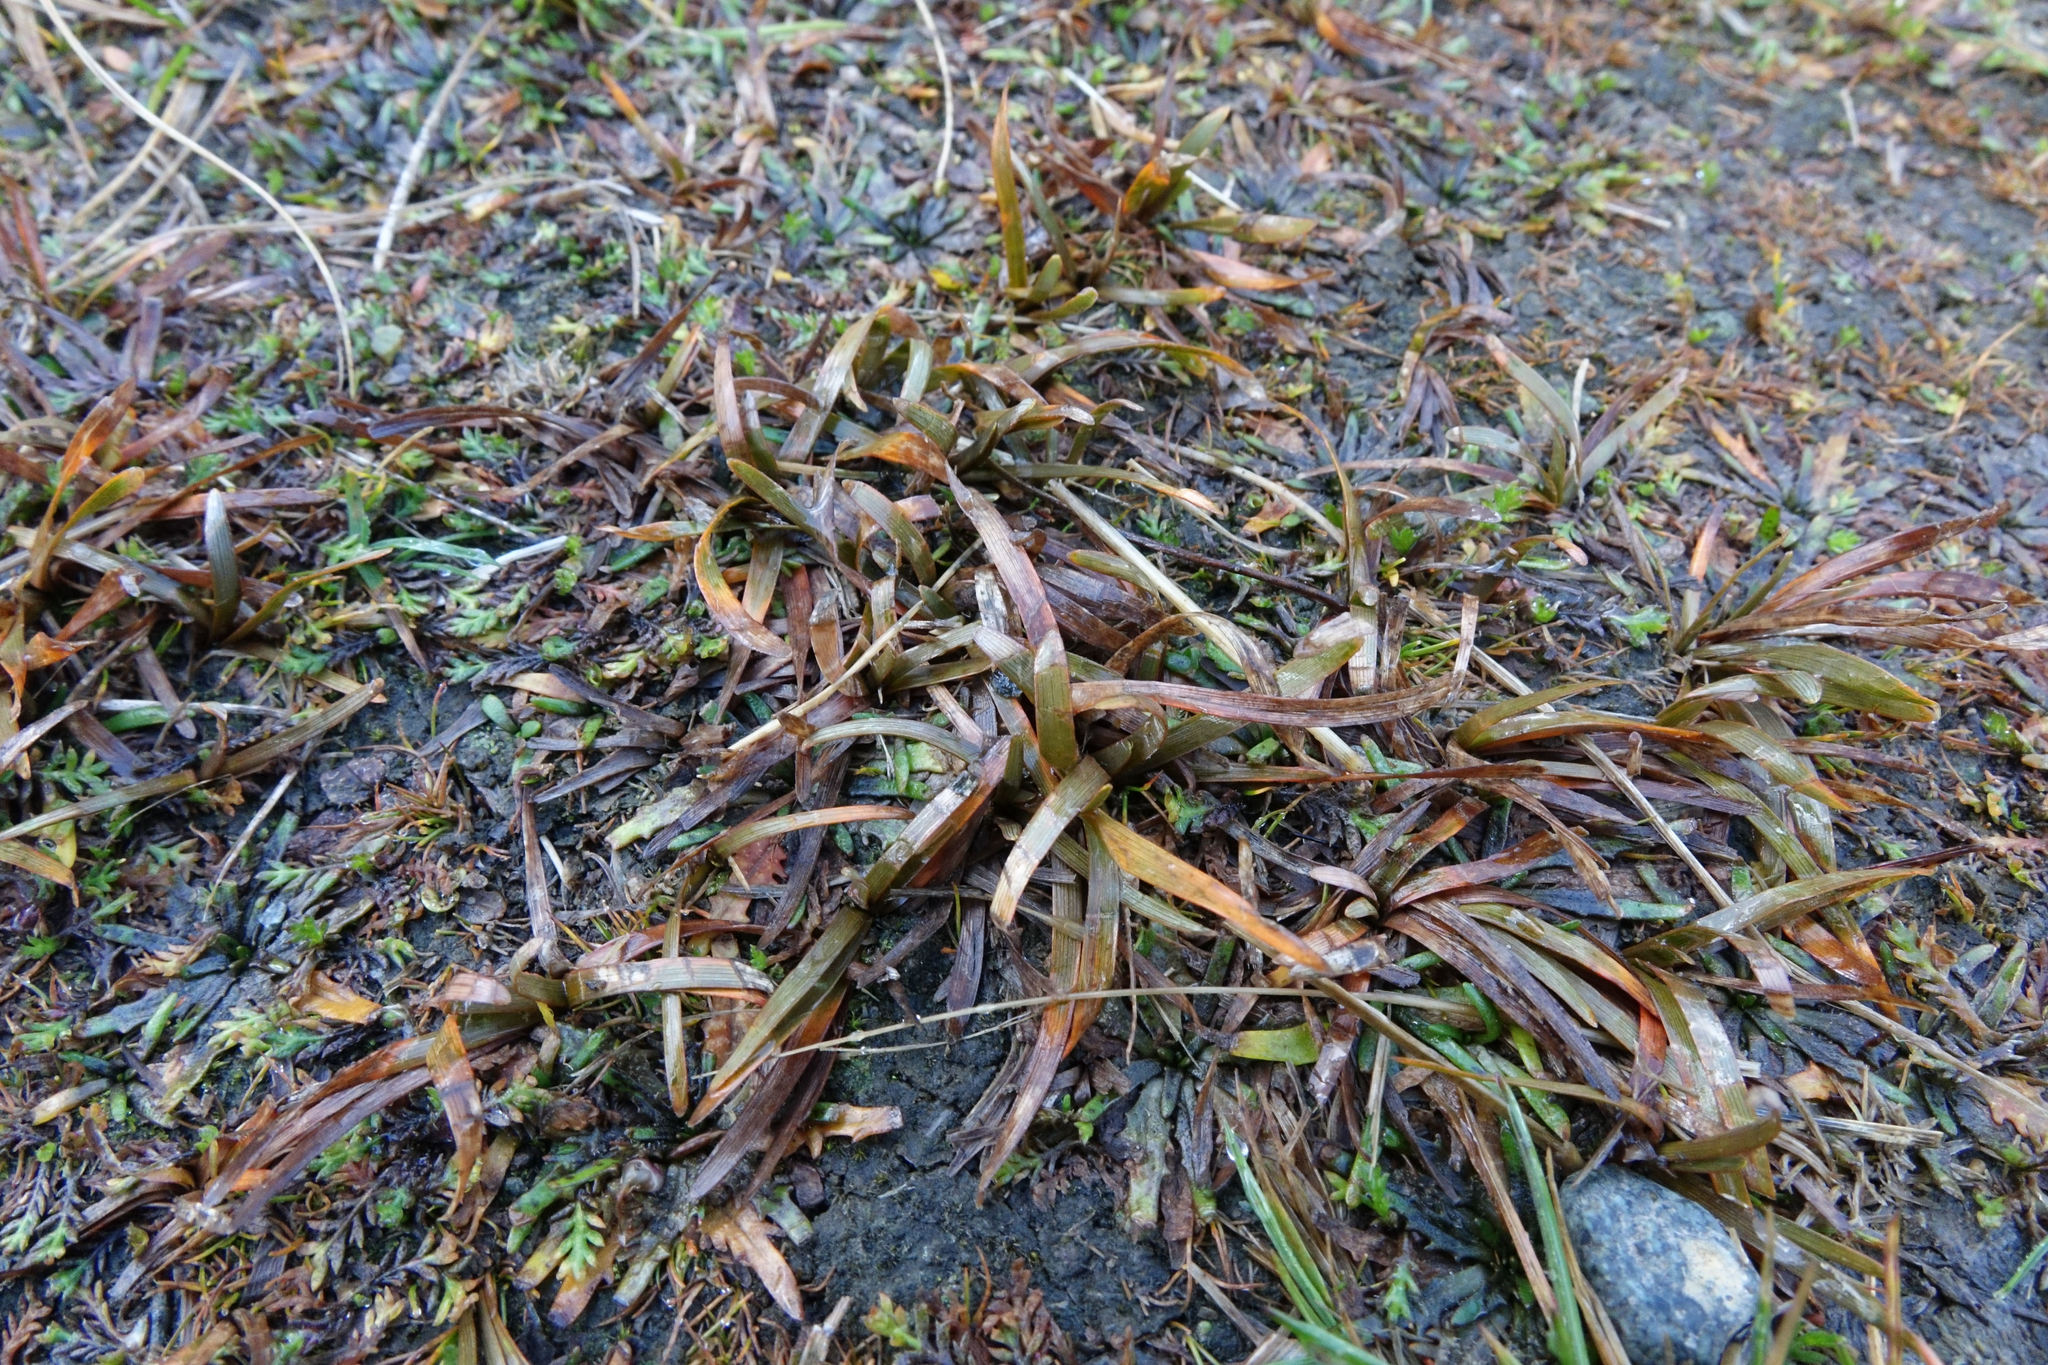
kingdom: Plantae
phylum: Tracheophyta
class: Liliopsida
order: Poales
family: Cyperaceae
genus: Carex
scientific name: Carex talbotii
